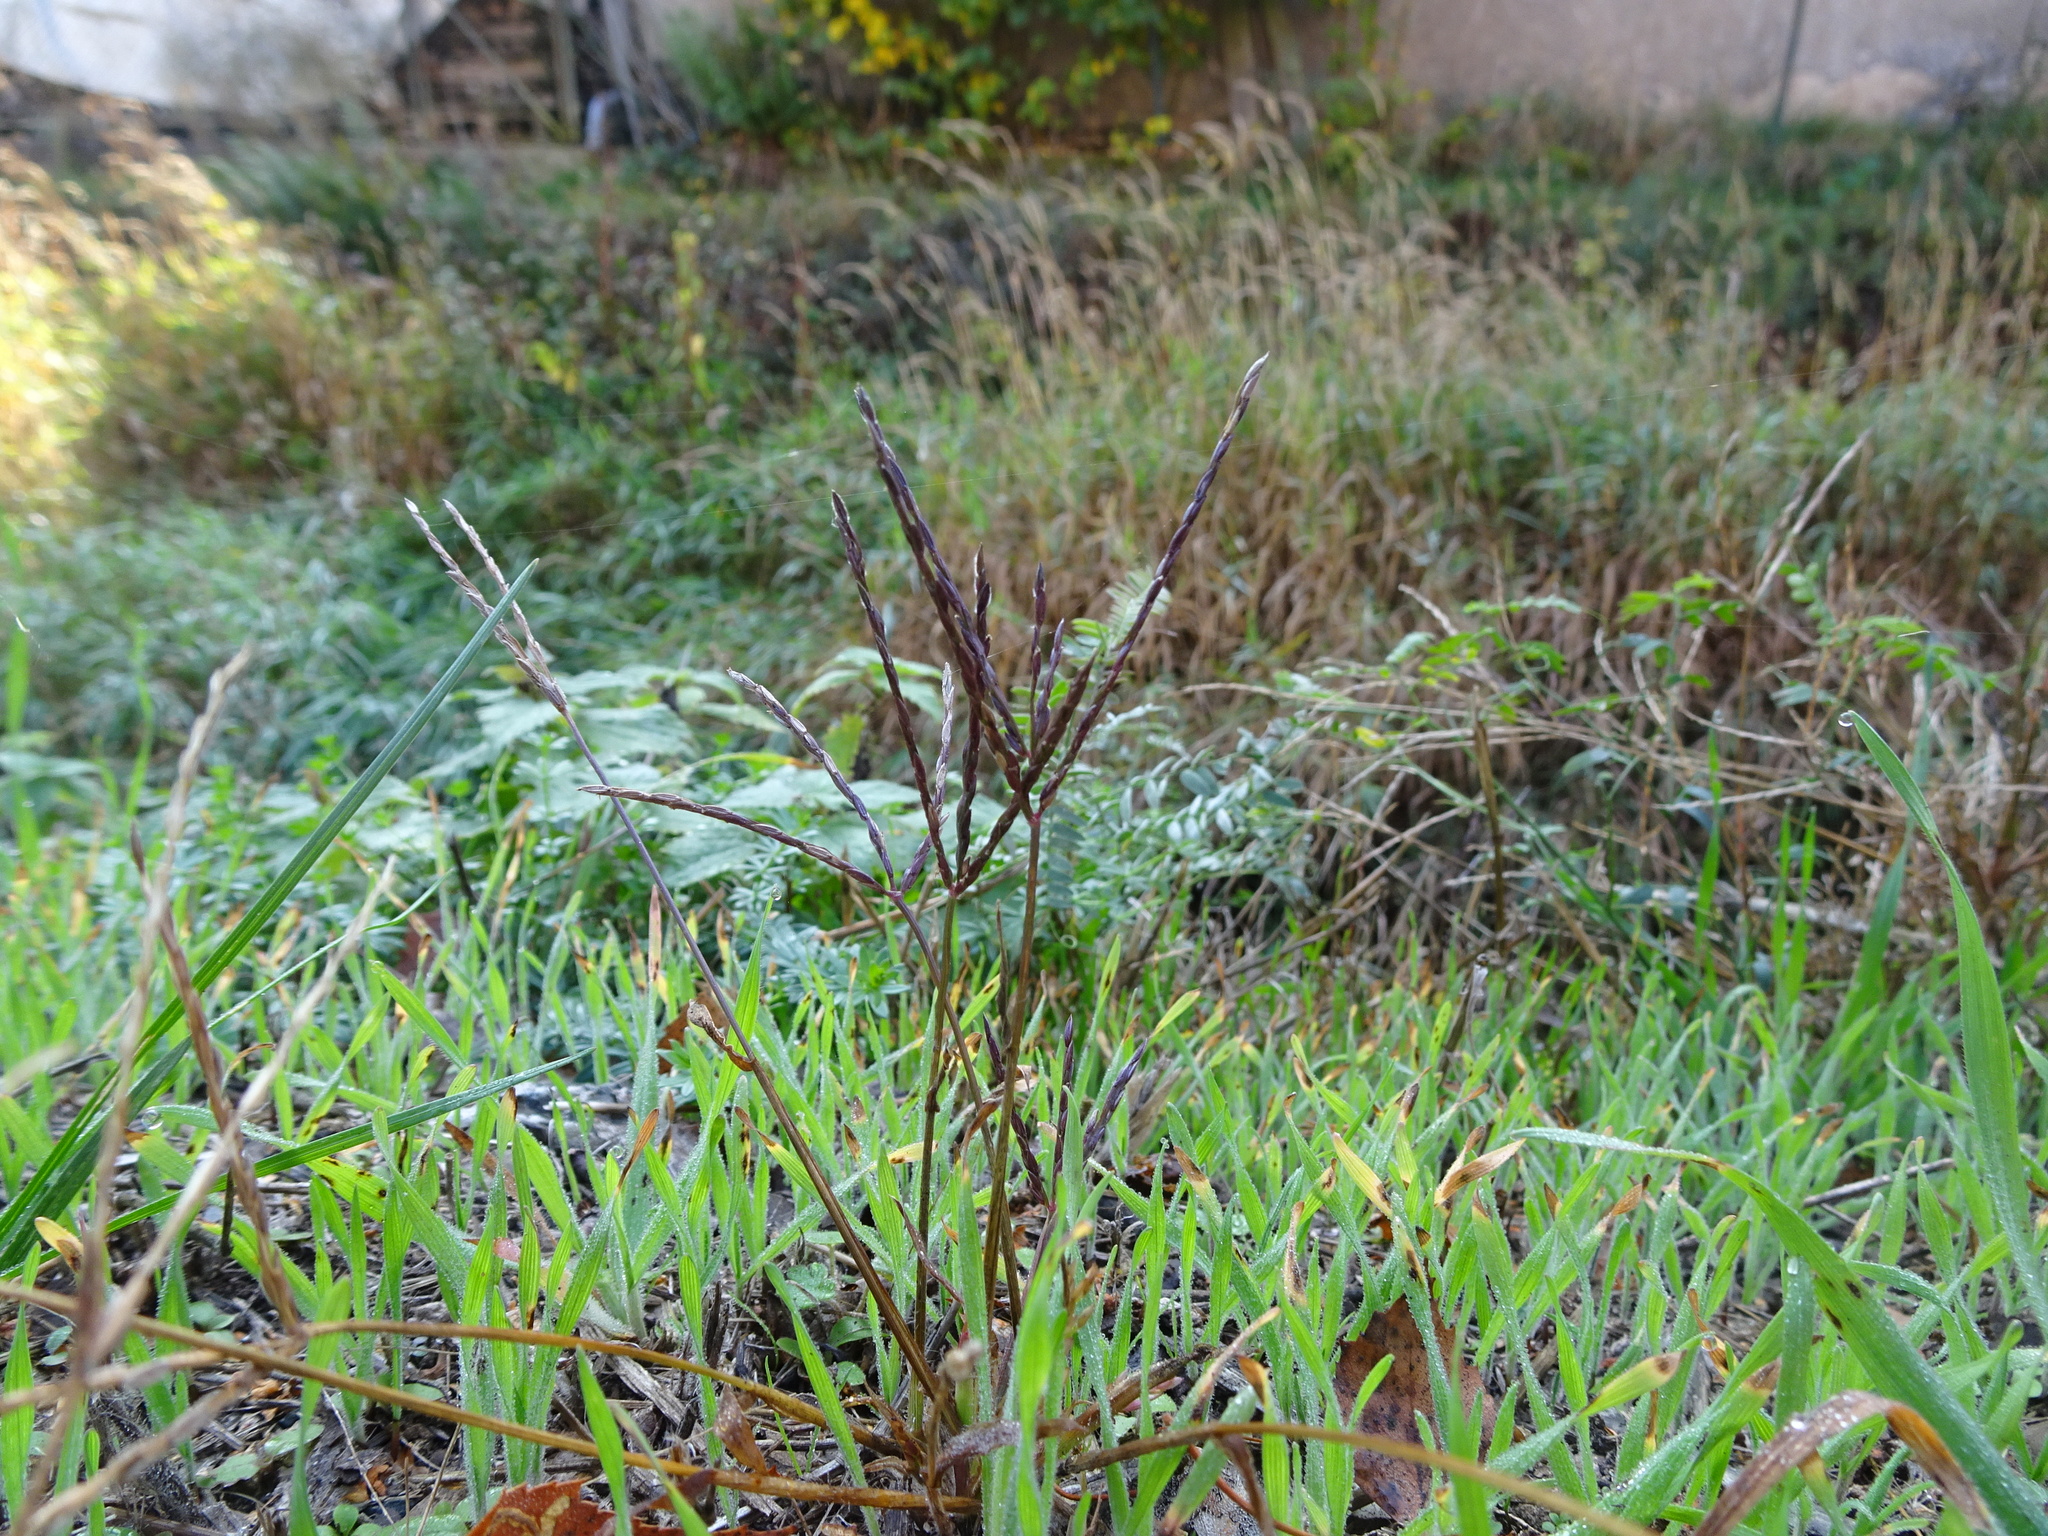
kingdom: Plantae
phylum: Tracheophyta
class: Liliopsida
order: Poales
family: Poaceae
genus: Digitaria
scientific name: Digitaria sanguinalis
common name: Hairy crabgrass
